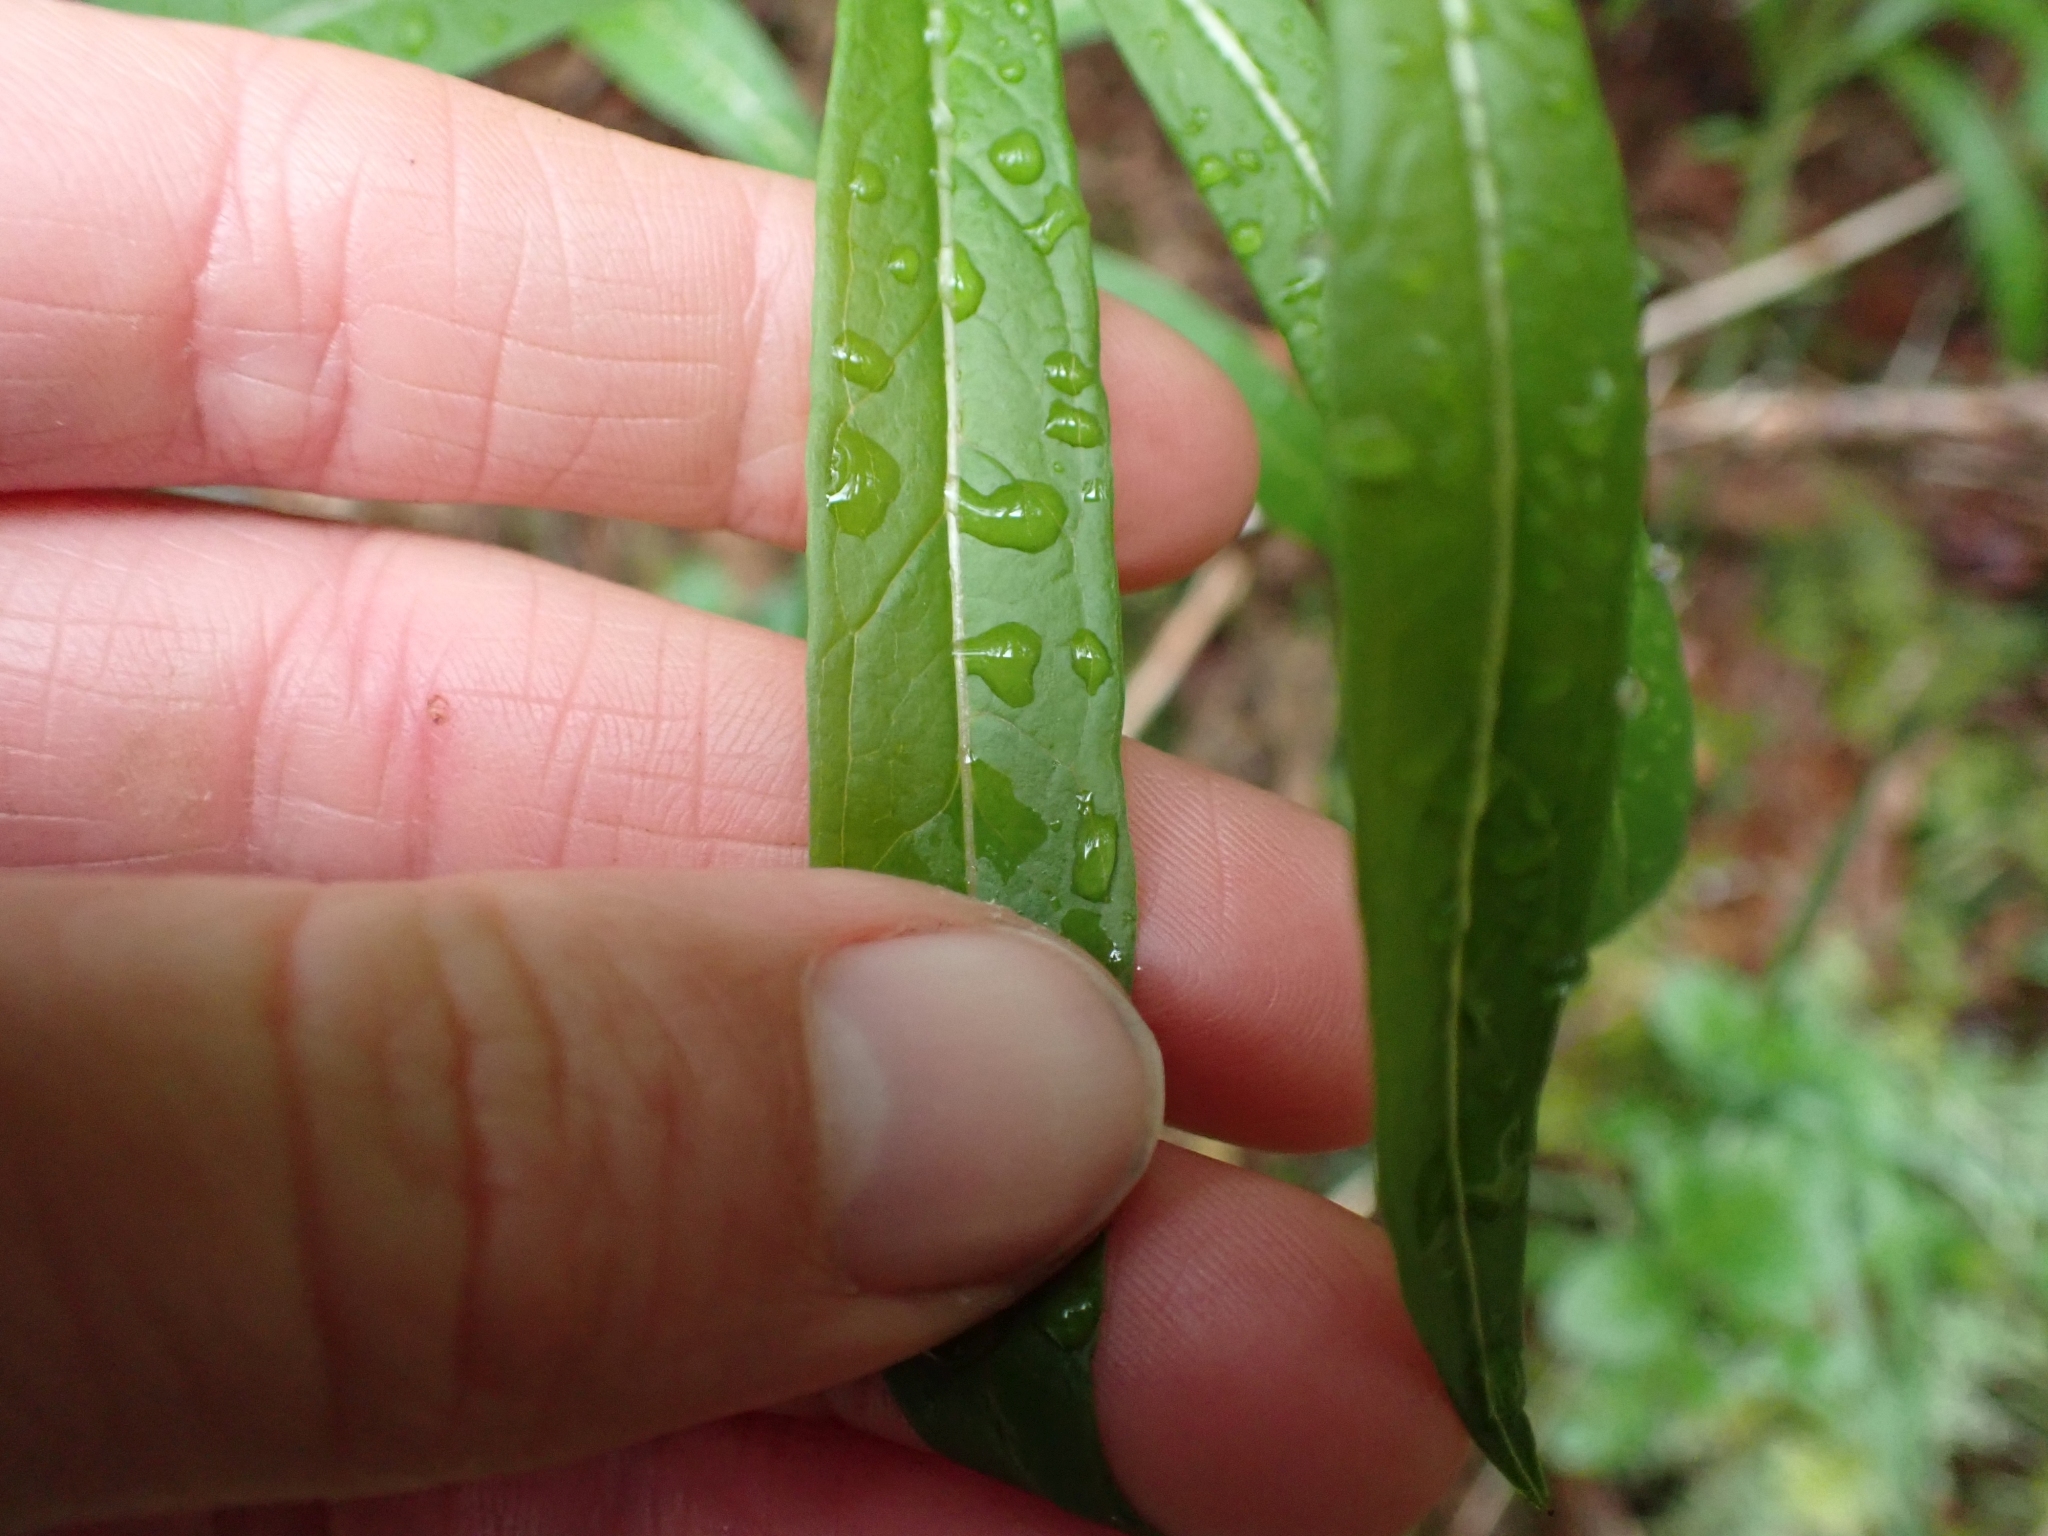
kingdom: Plantae
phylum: Tracheophyta
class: Magnoliopsida
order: Myrtales
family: Onagraceae
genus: Chamaenerion
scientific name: Chamaenerion angustifolium
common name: Fireweed
